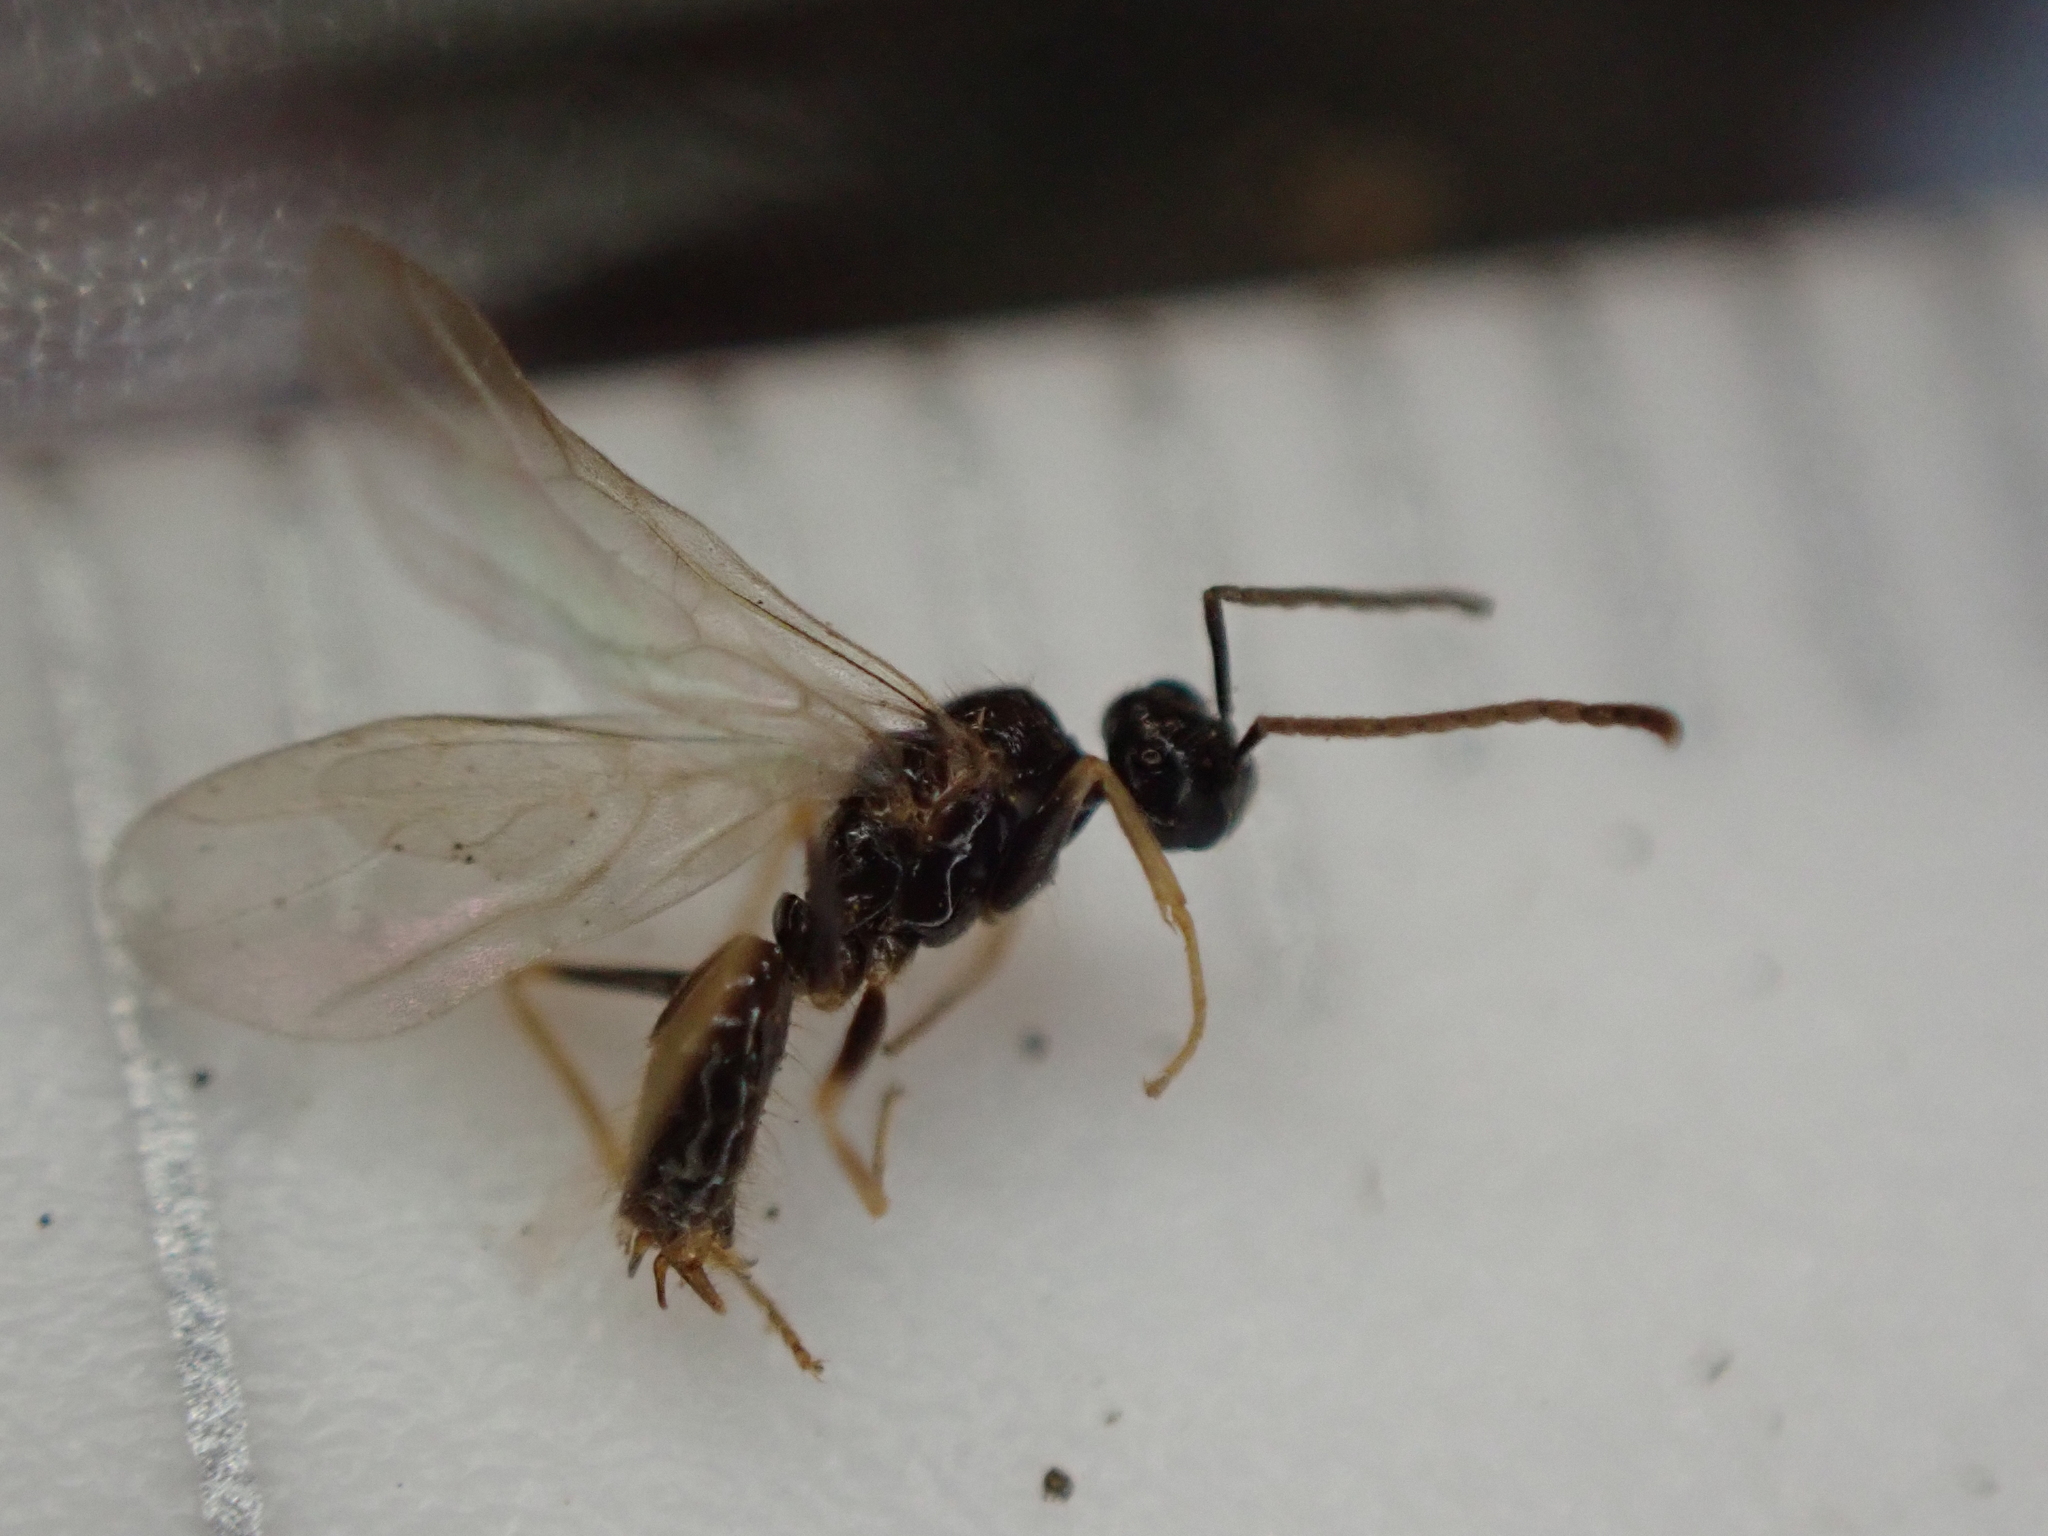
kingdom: Animalia
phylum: Arthropoda
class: Insecta
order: Hymenoptera
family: Formicidae
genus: Prenolepis
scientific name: Prenolepis imparis
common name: Small honey ant
